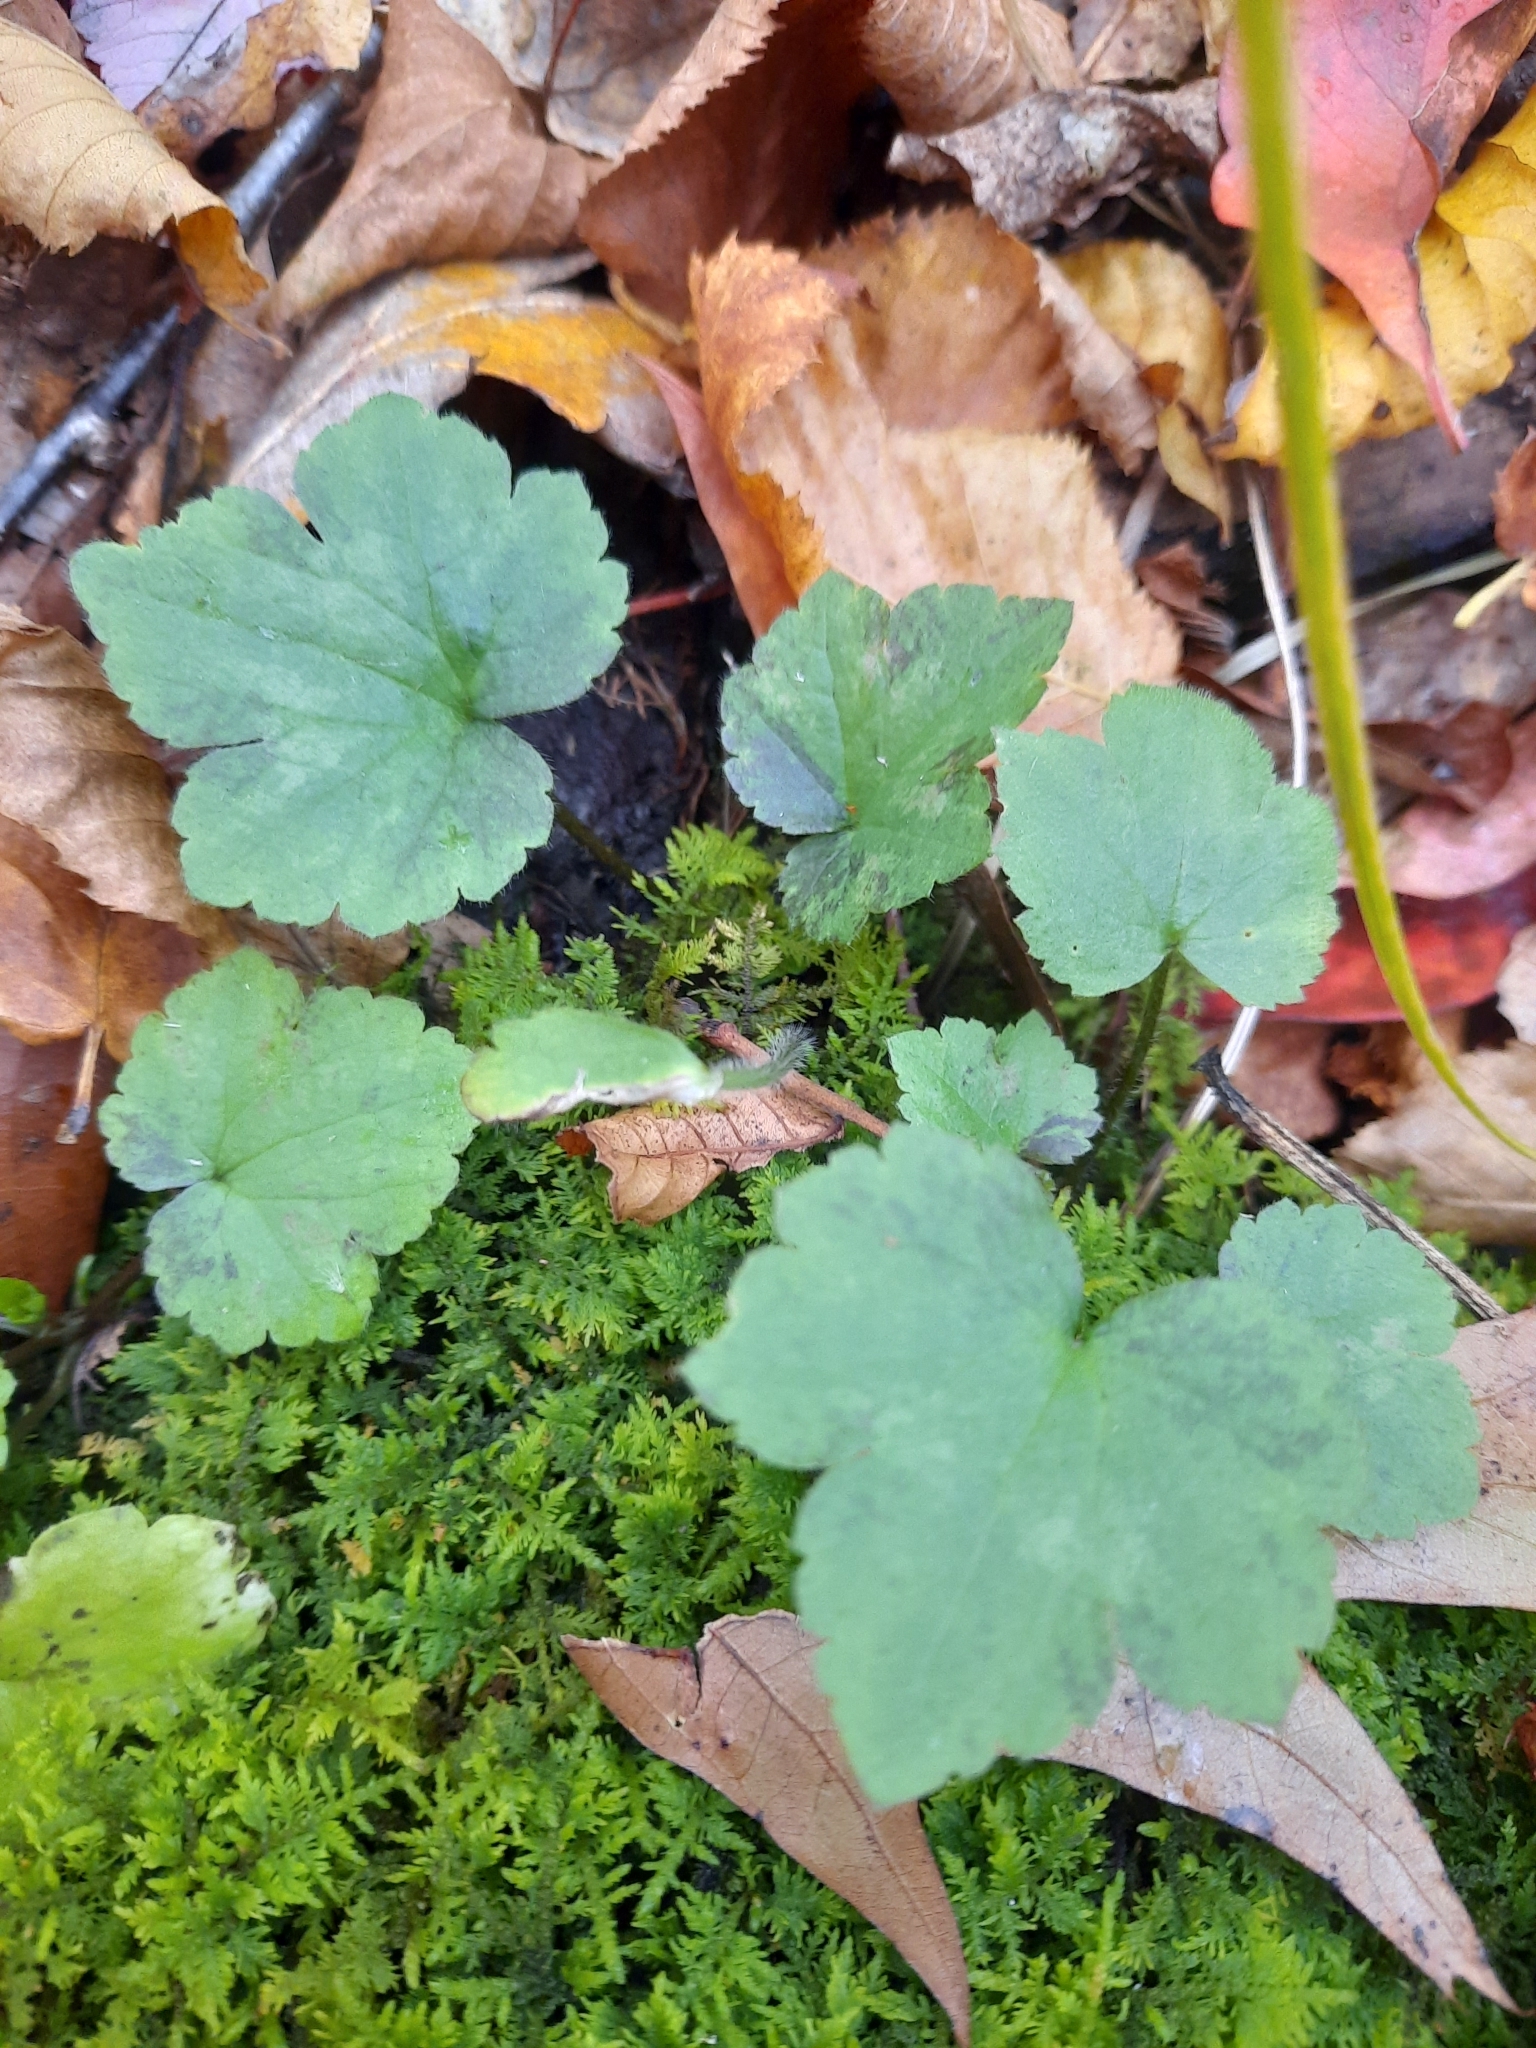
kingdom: Plantae
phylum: Tracheophyta
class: Magnoliopsida
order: Ranunculales
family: Ranunculaceae
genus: Ranunculus
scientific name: Ranunculus recurvatus
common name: Blisterwort
